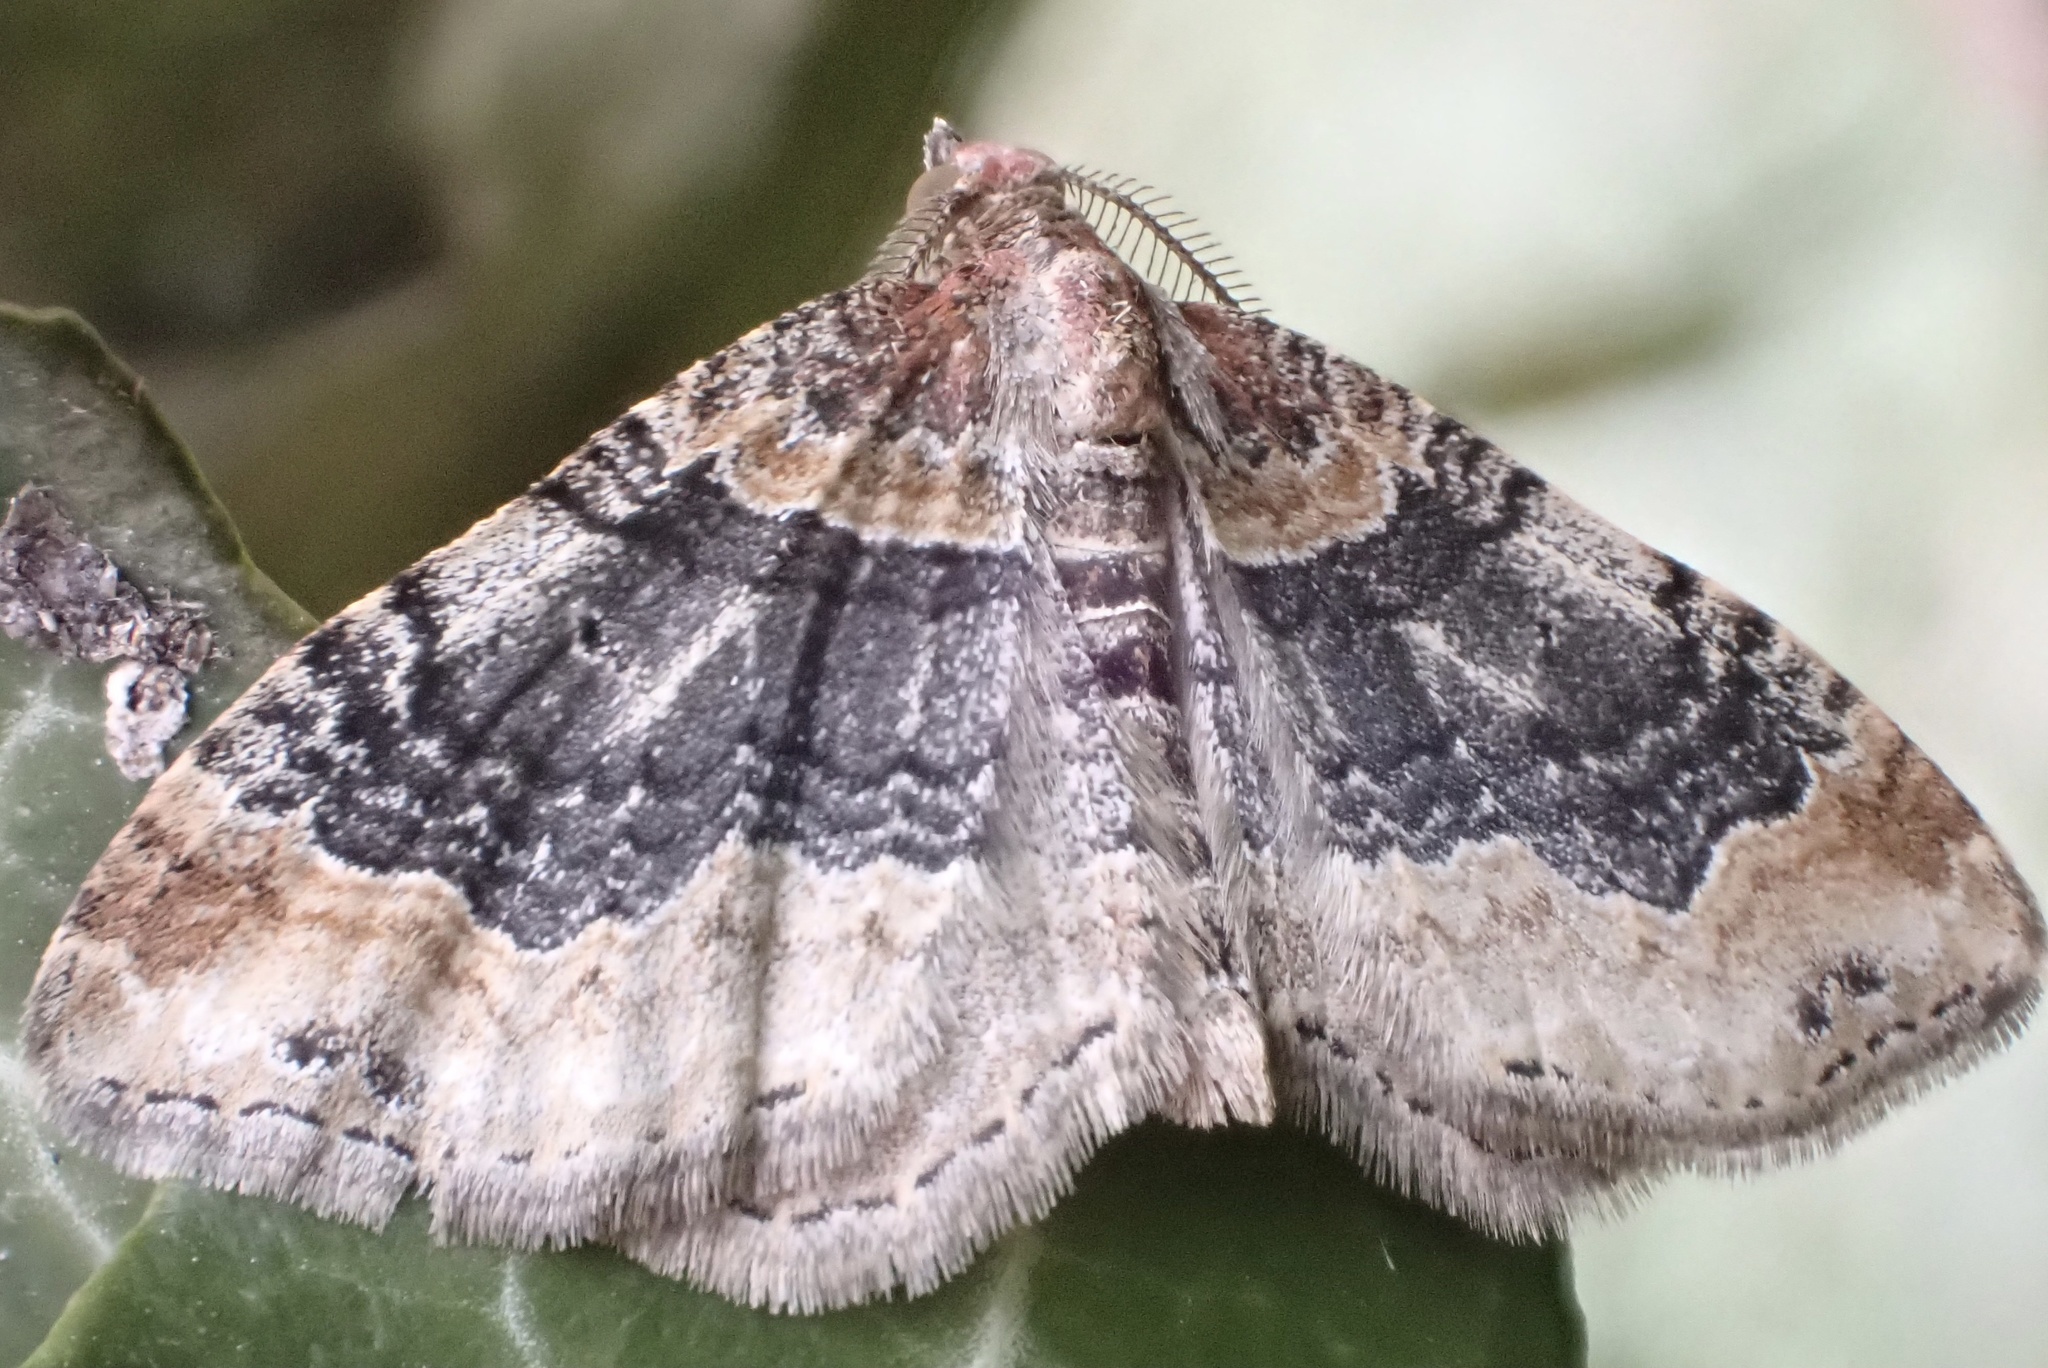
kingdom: Animalia
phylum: Arthropoda
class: Insecta
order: Lepidoptera
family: Geometridae
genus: Xanthorhoe
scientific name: Xanthorhoe ferrugata
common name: Dark-barred twin-spot carpet
